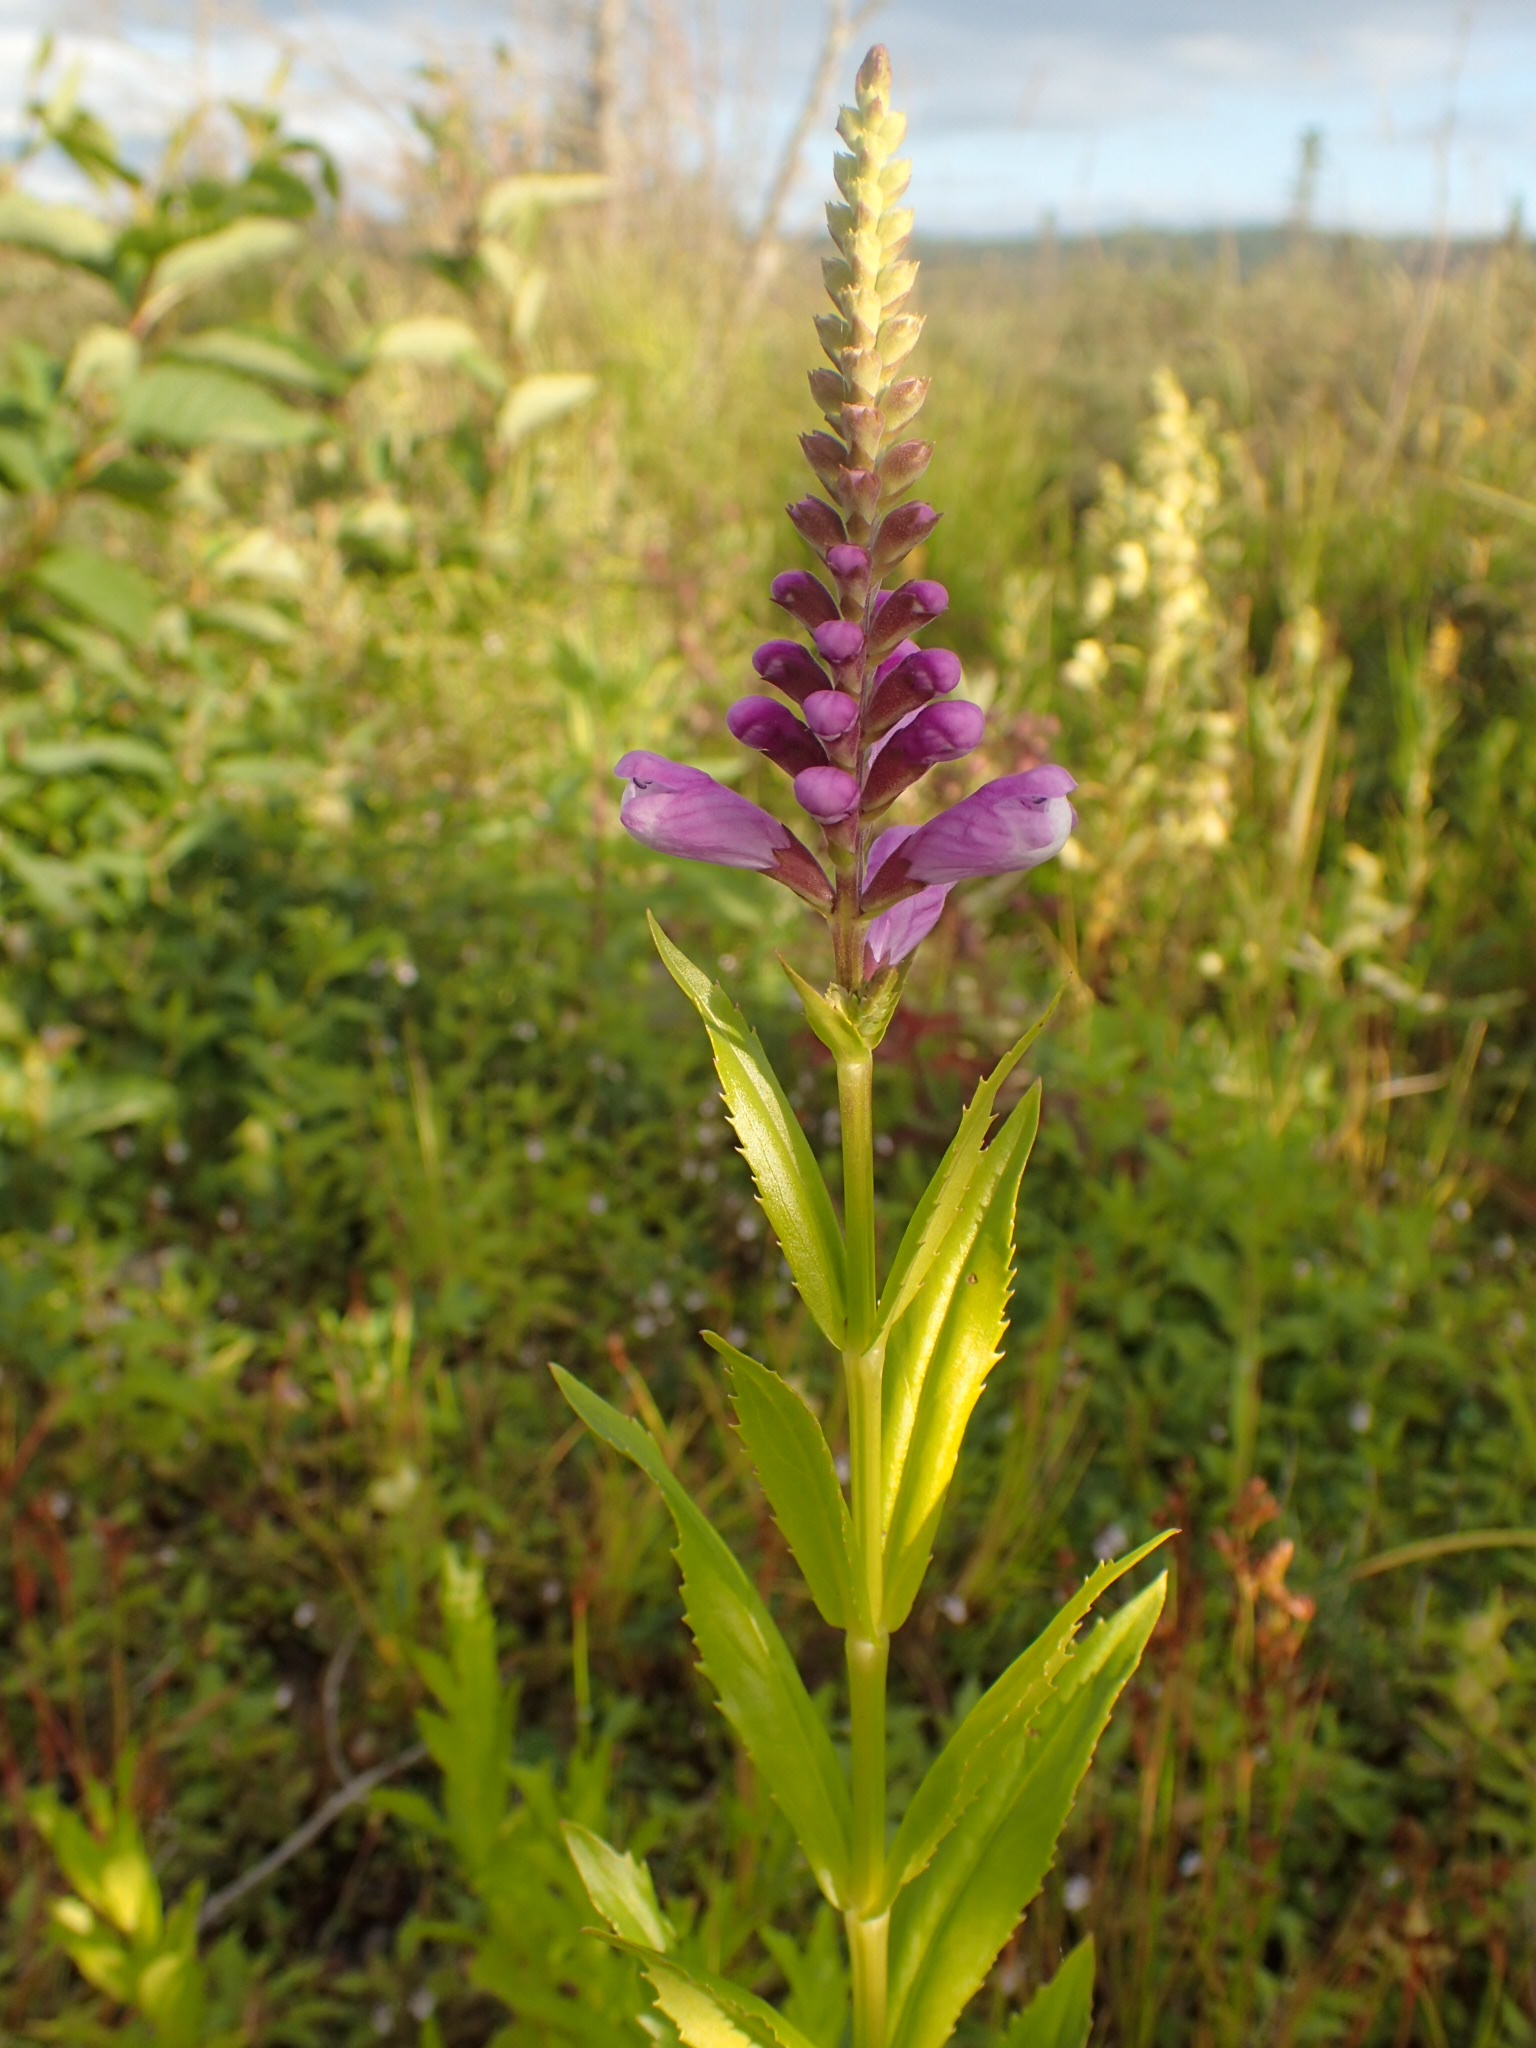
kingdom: Plantae
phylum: Tracheophyta
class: Magnoliopsida
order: Lamiales
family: Lamiaceae
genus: Physostegia
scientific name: Physostegia virginiana
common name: Obedient-plant
